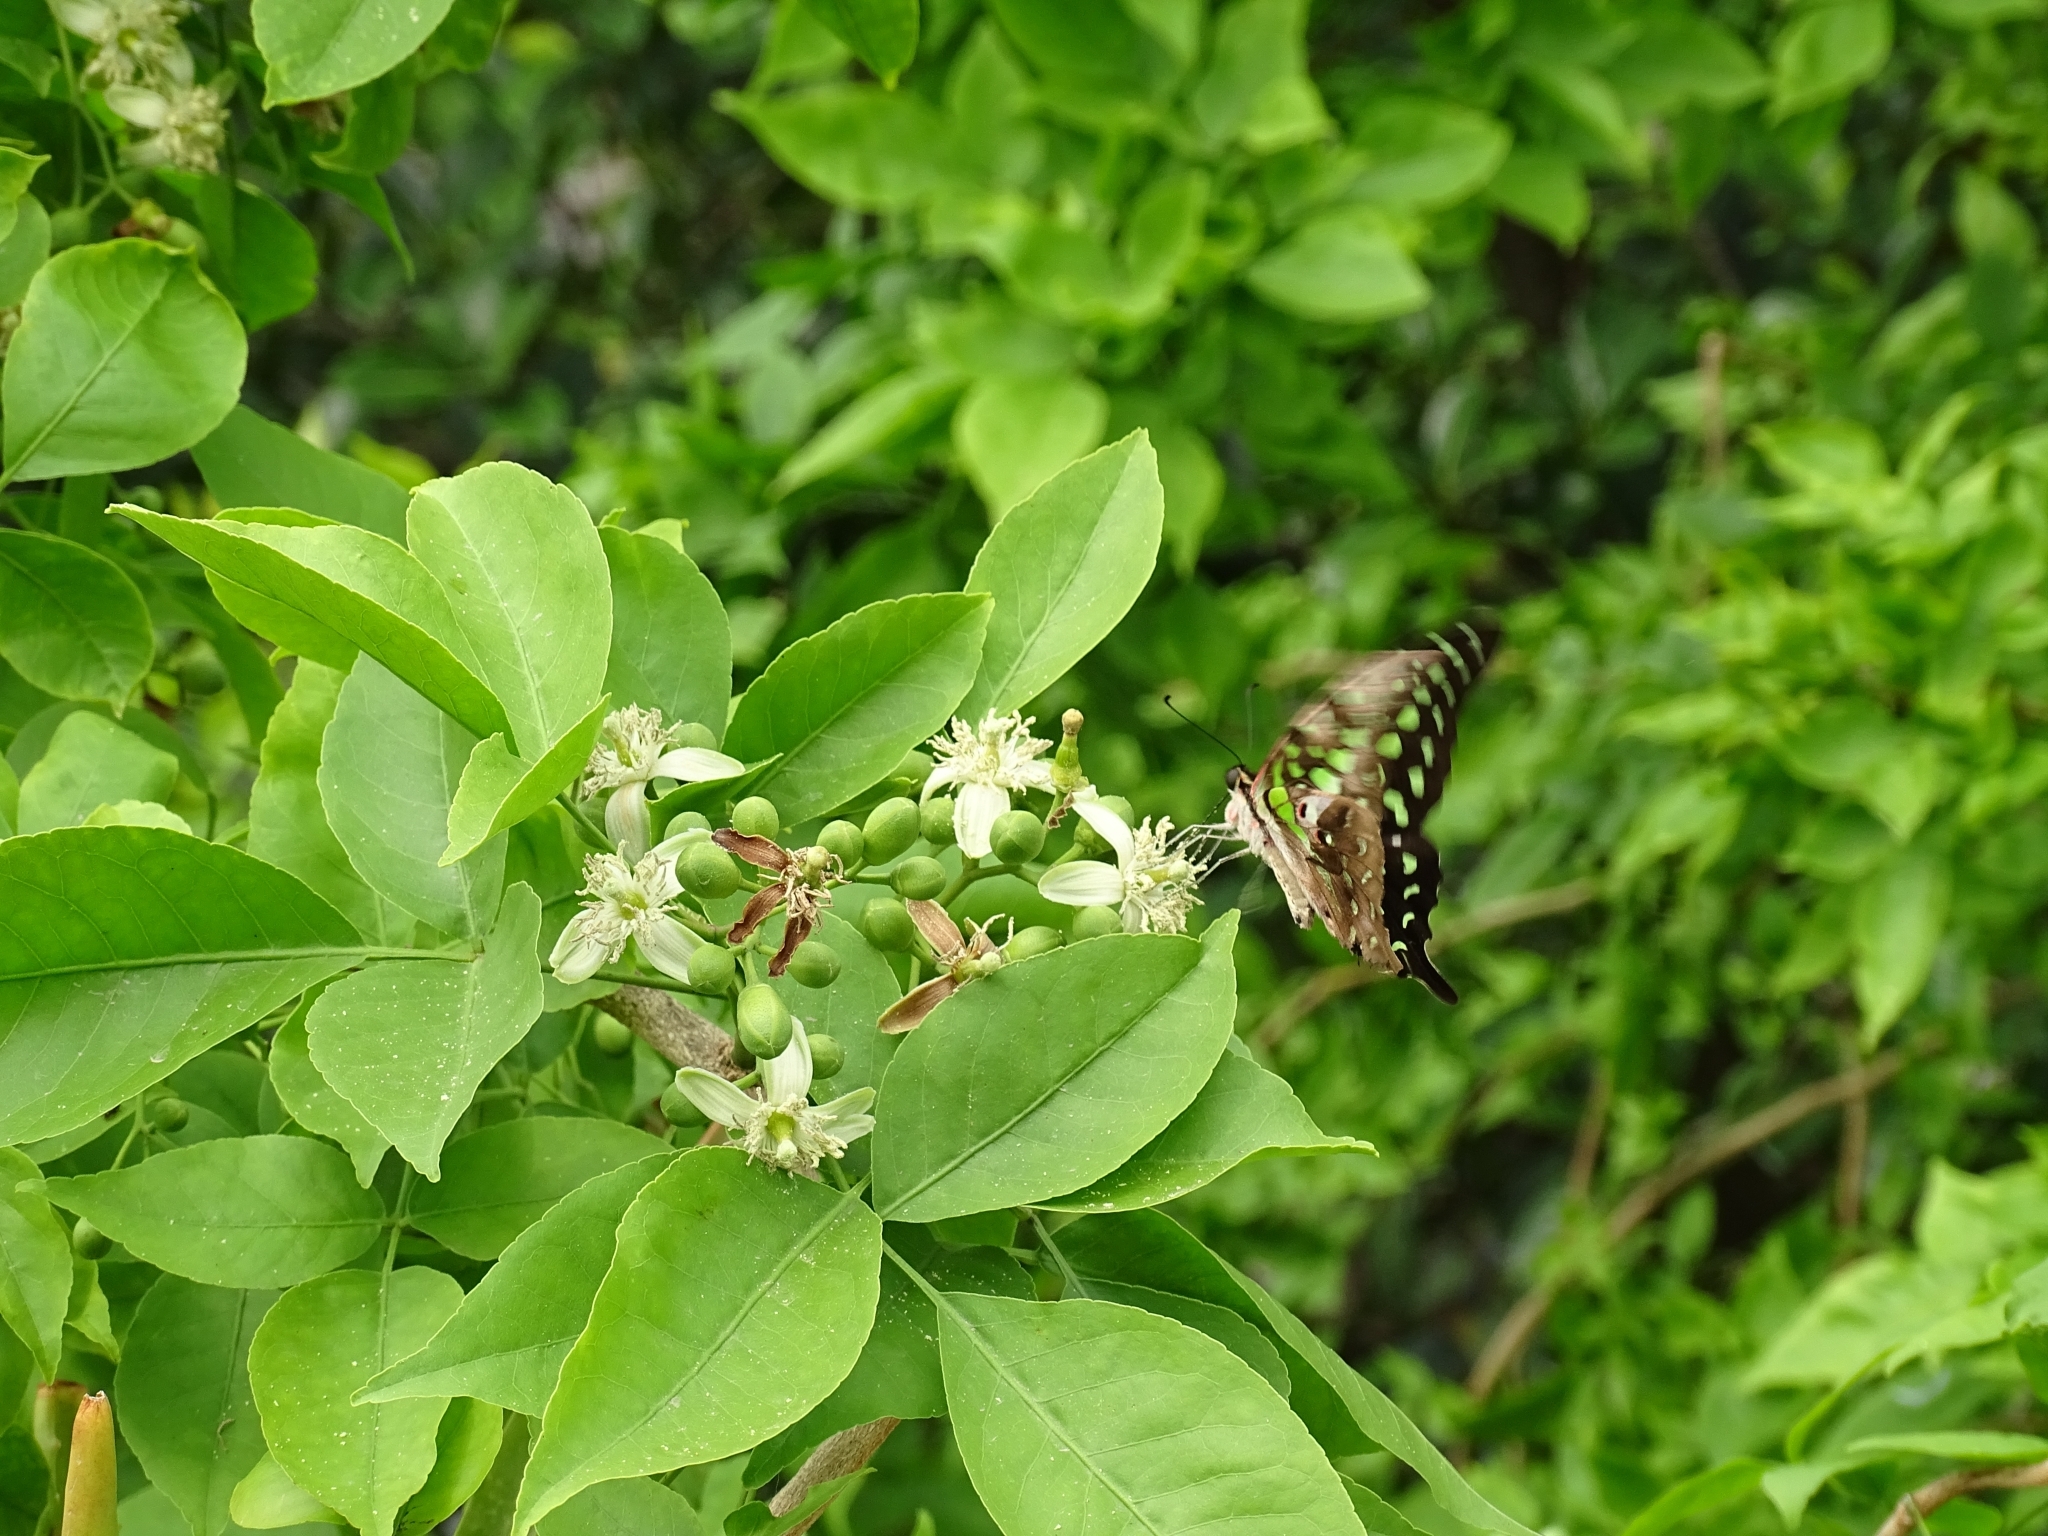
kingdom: Animalia
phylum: Arthropoda
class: Insecta
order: Lepidoptera
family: Papilionidae
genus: Graphium
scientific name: Graphium agamemnon
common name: Tailed jay
